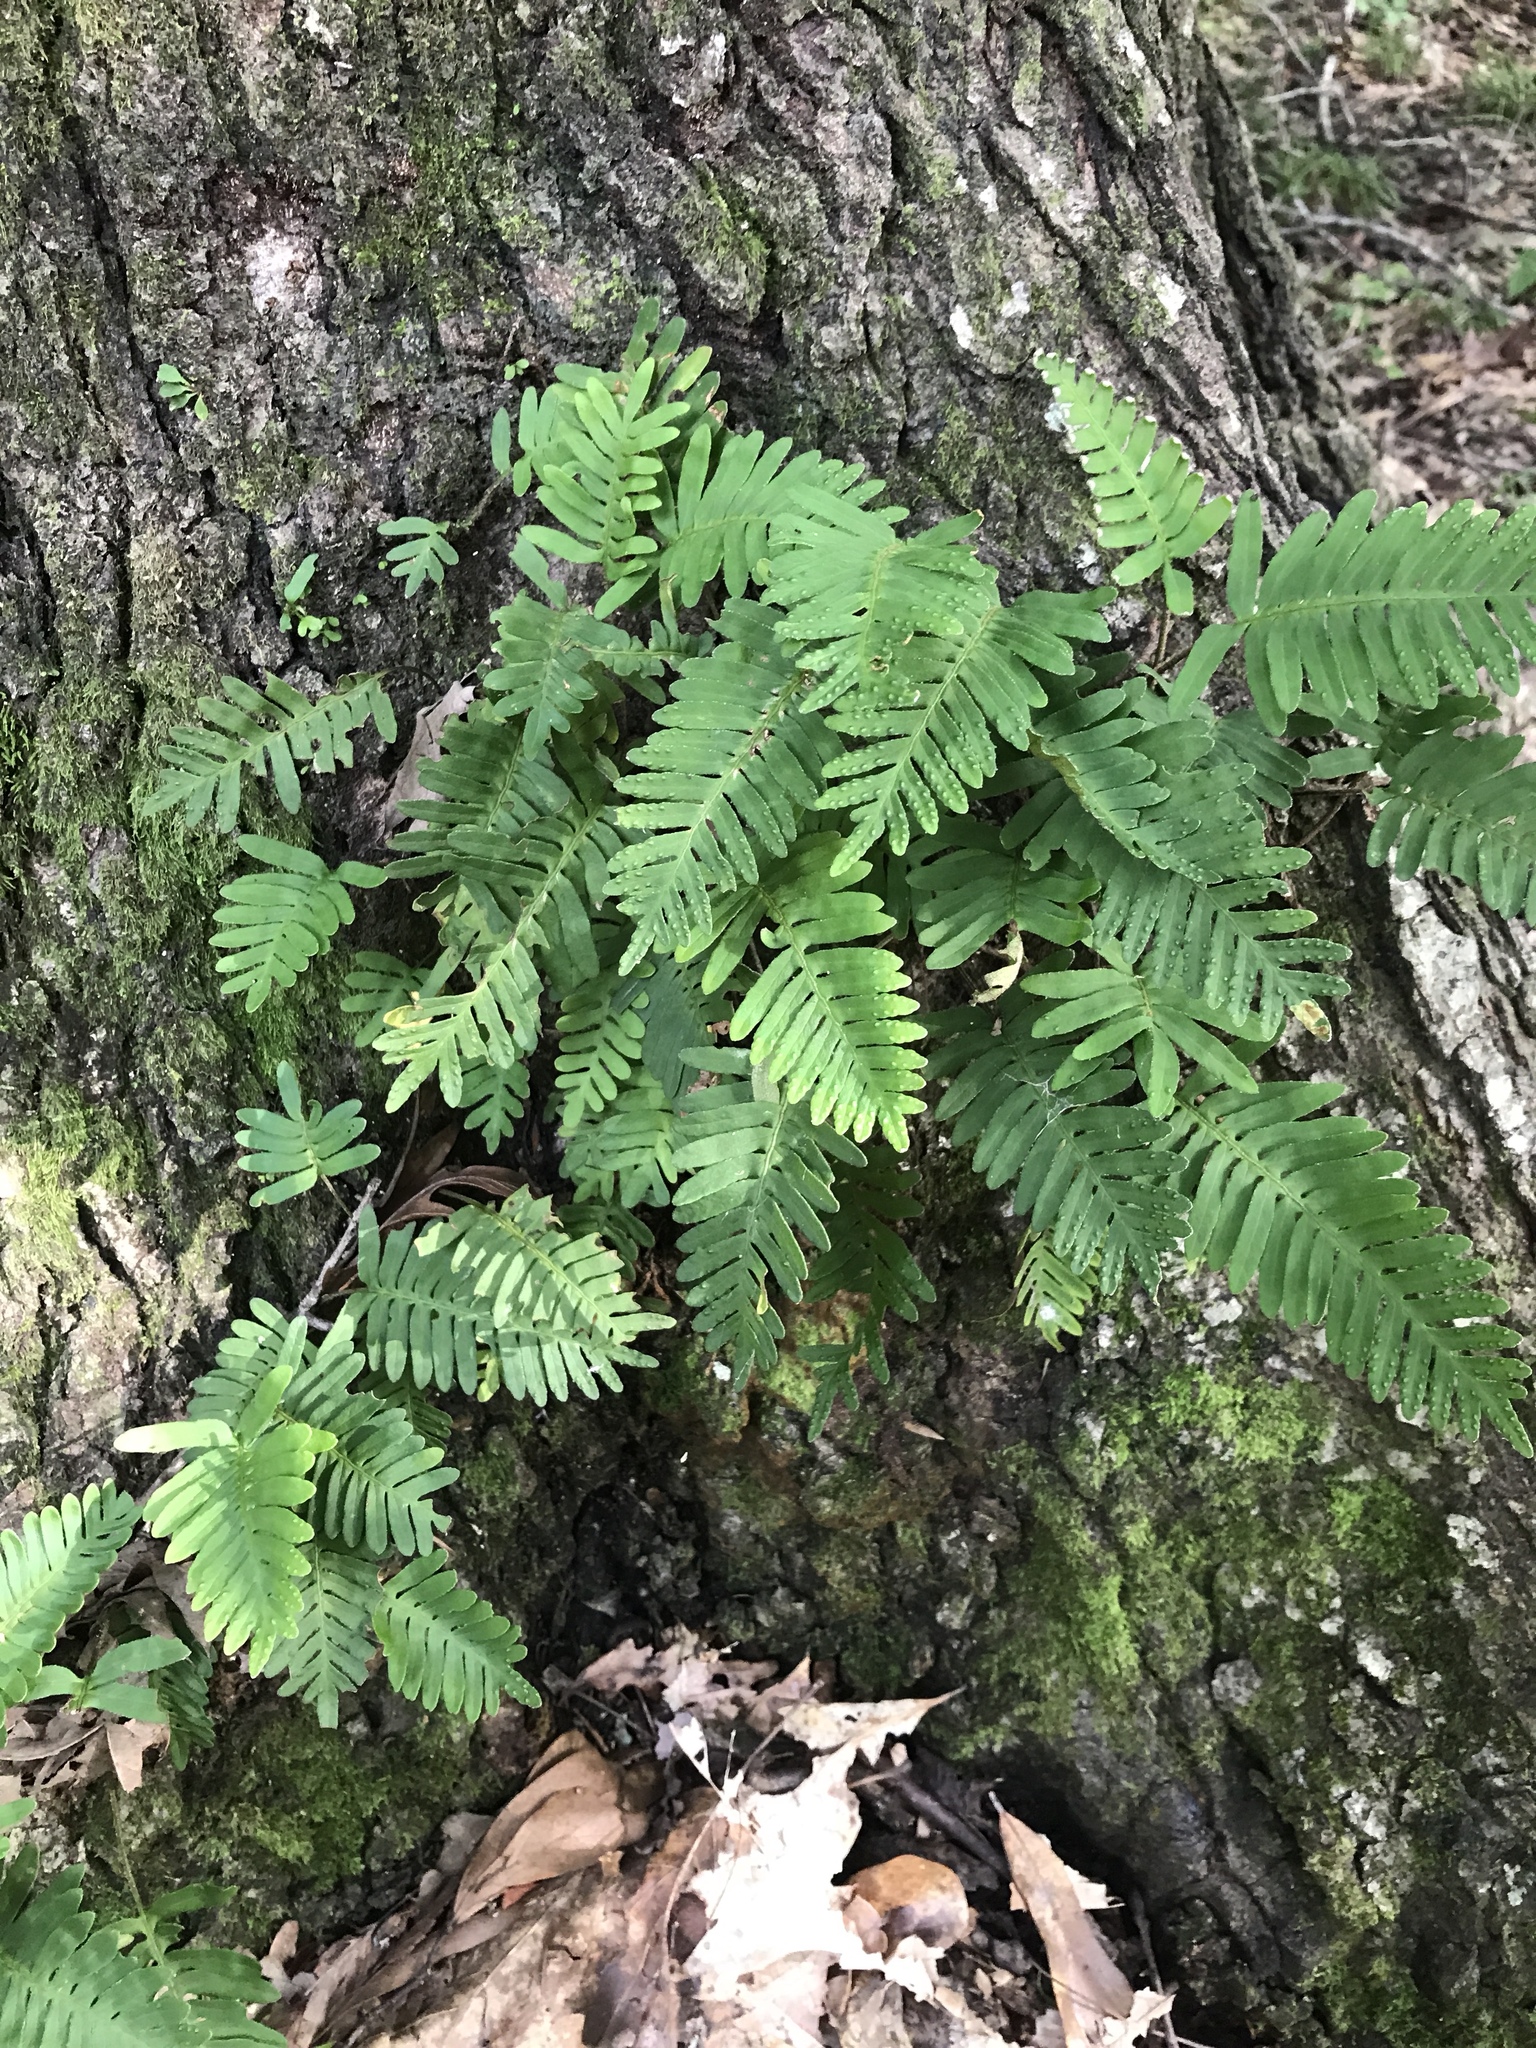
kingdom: Plantae
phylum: Tracheophyta
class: Polypodiopsida
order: Polypodiales
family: Polypodiaceae
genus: Pleopeltis
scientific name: Pleopeltis michauxiana
